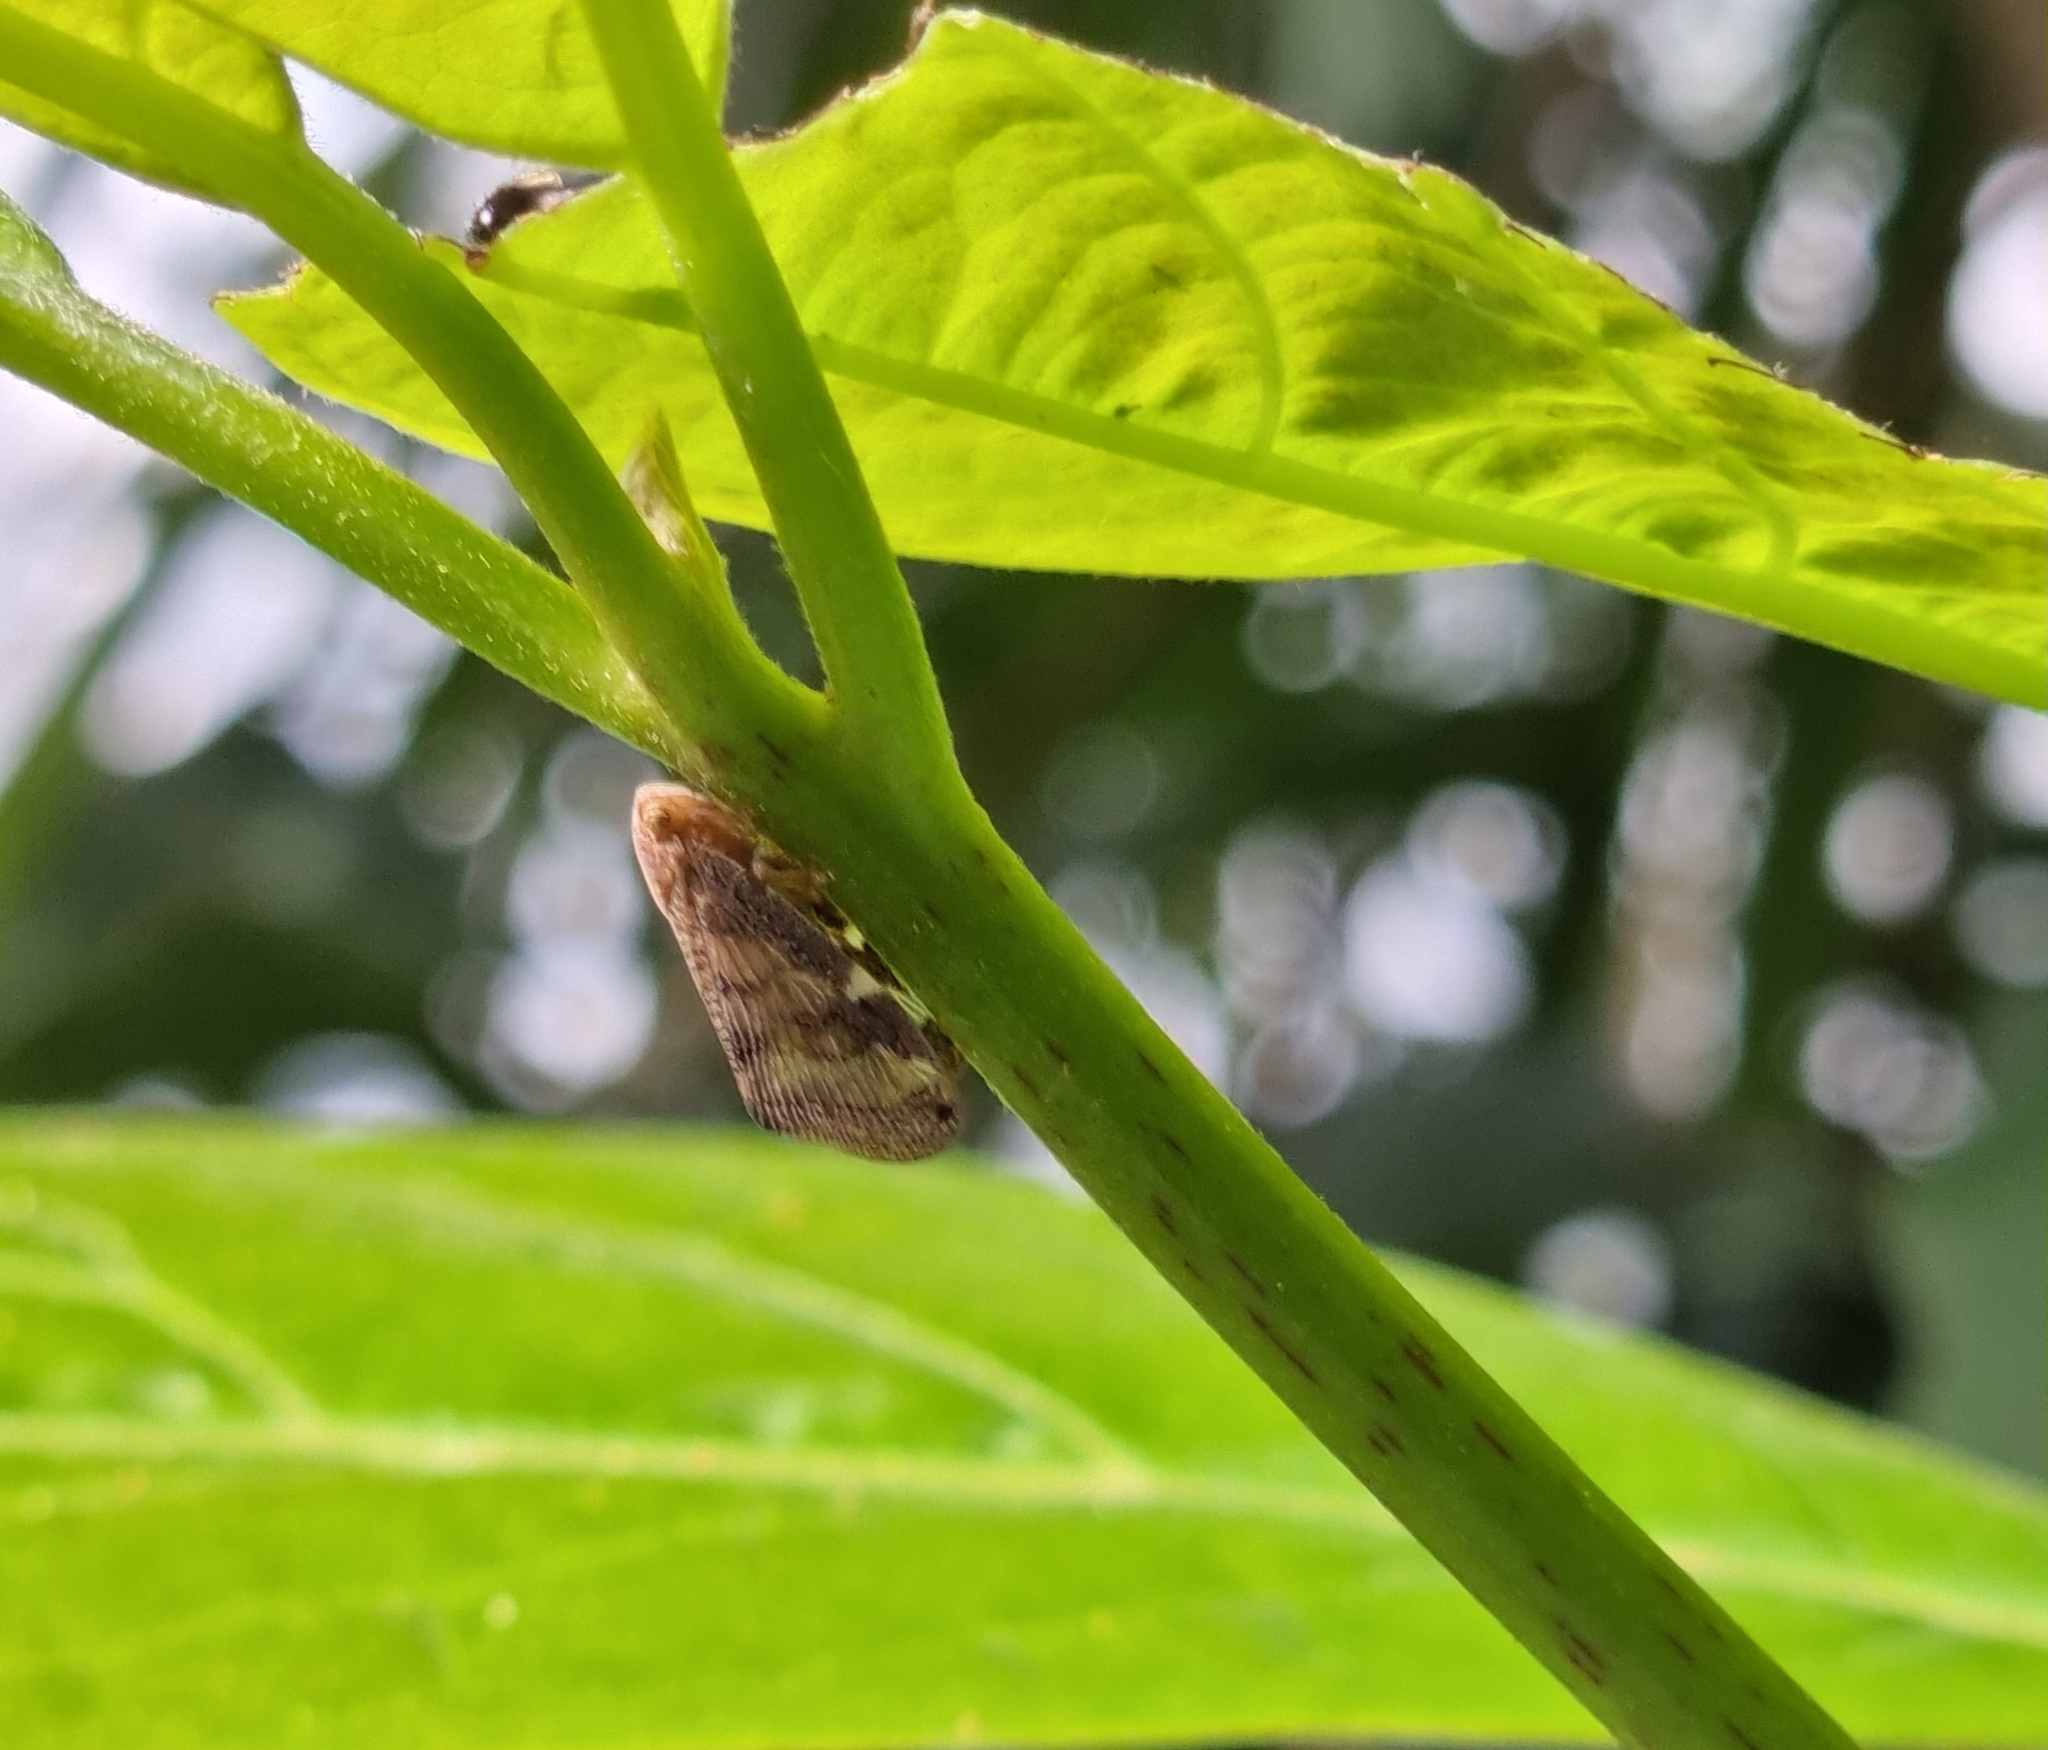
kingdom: Animalia
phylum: Arthropoda
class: Insecta
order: Hemiptera
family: Ricaniidae
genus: Scolypopa
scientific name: Scolypopa australis
